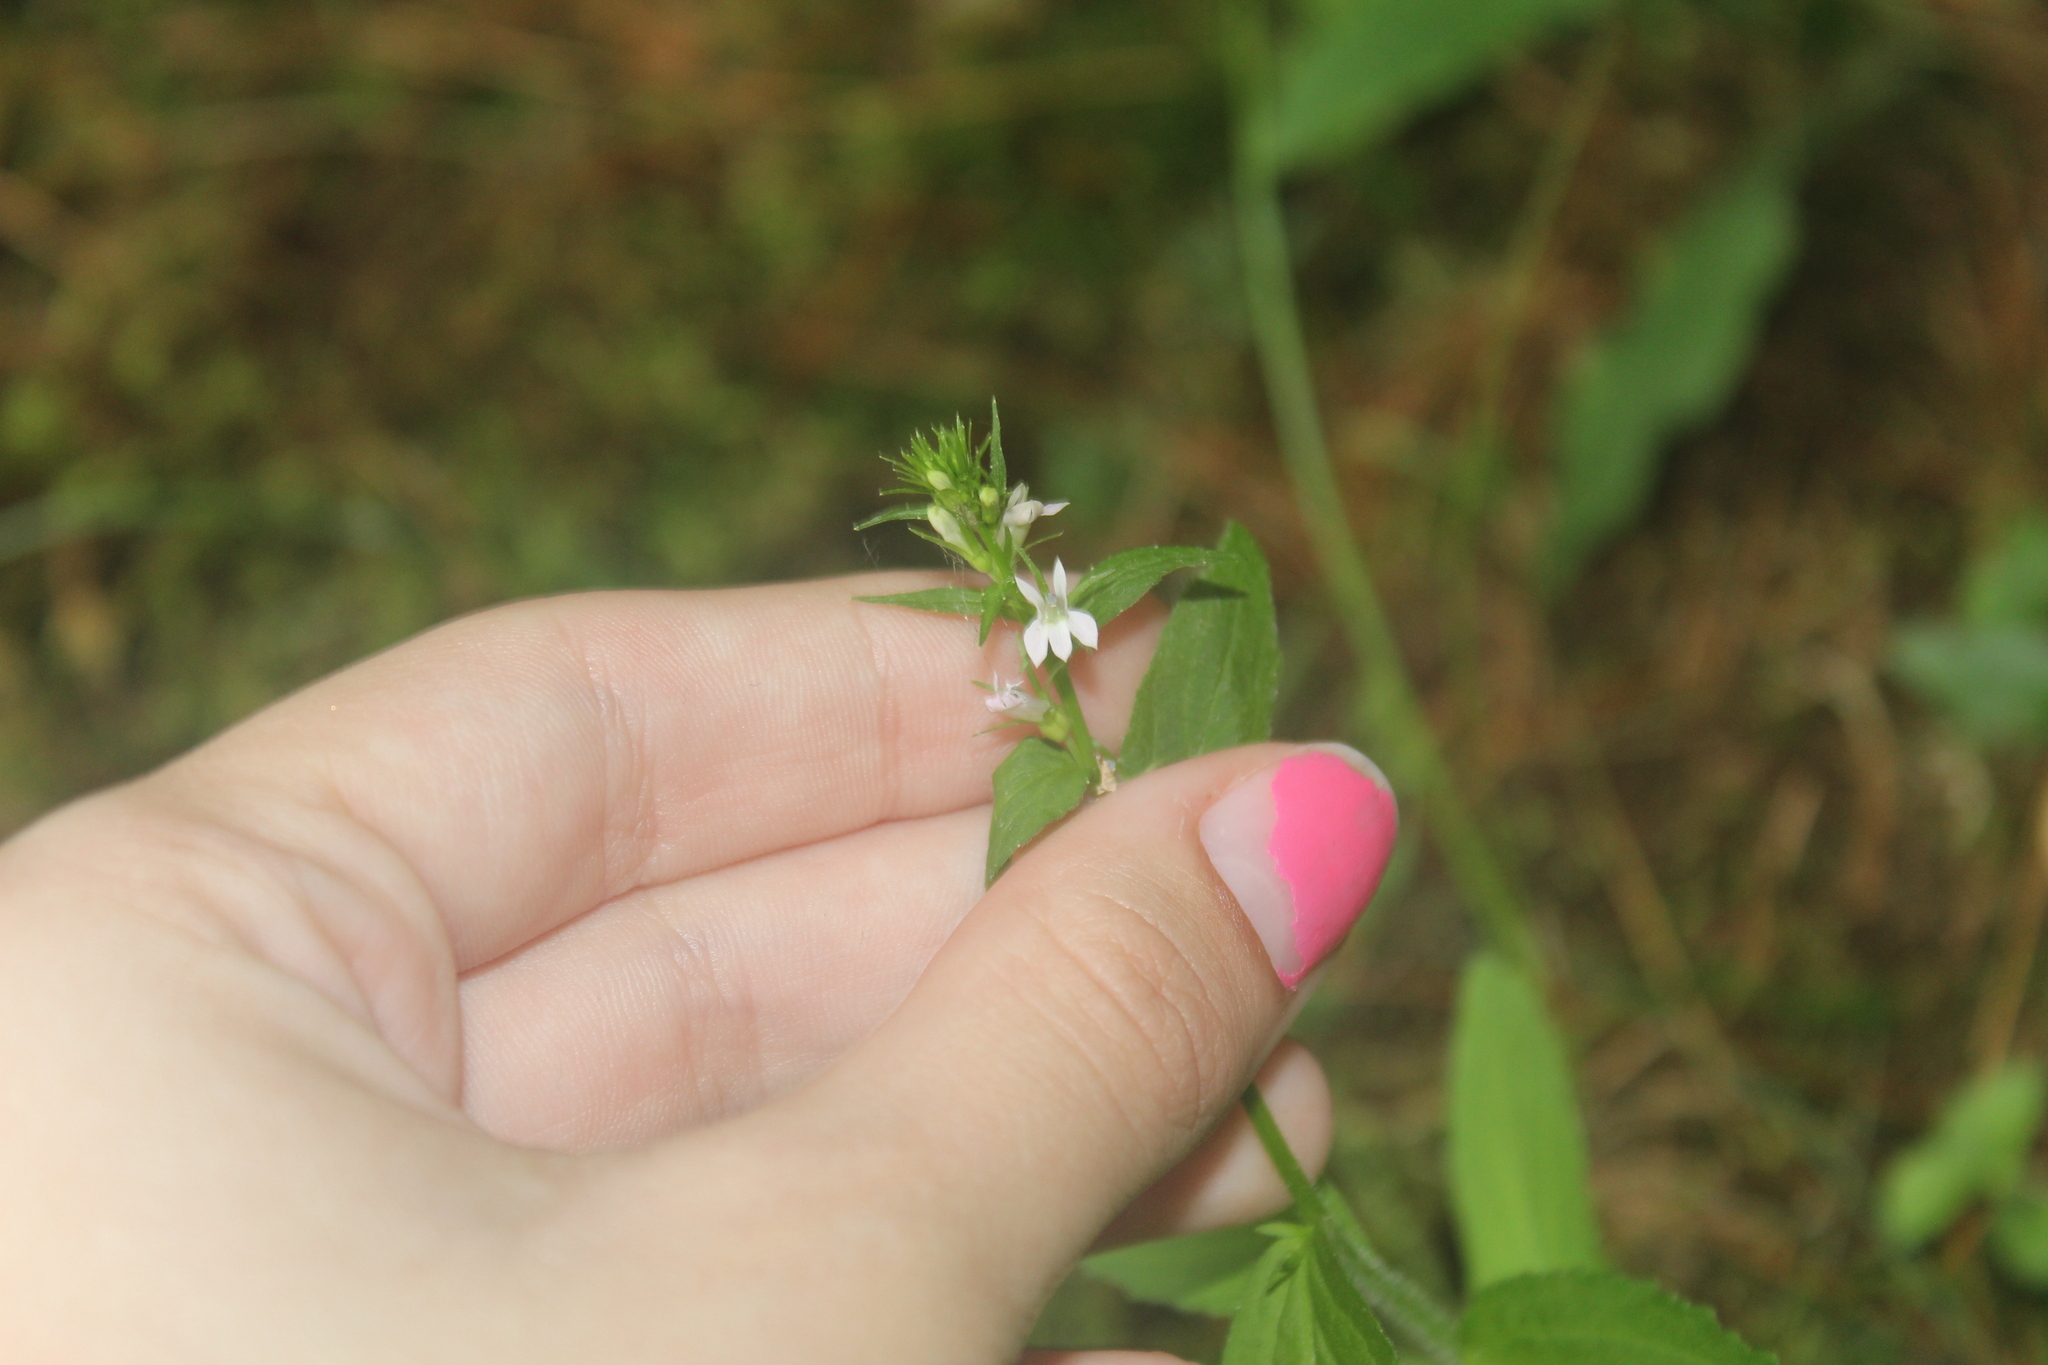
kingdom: Plantae
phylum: Tracheophyta
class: Magnoliopsida
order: Asterales
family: Campanulaceae
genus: Lobelia
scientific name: Lobelia inflata
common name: Indian tobacco
